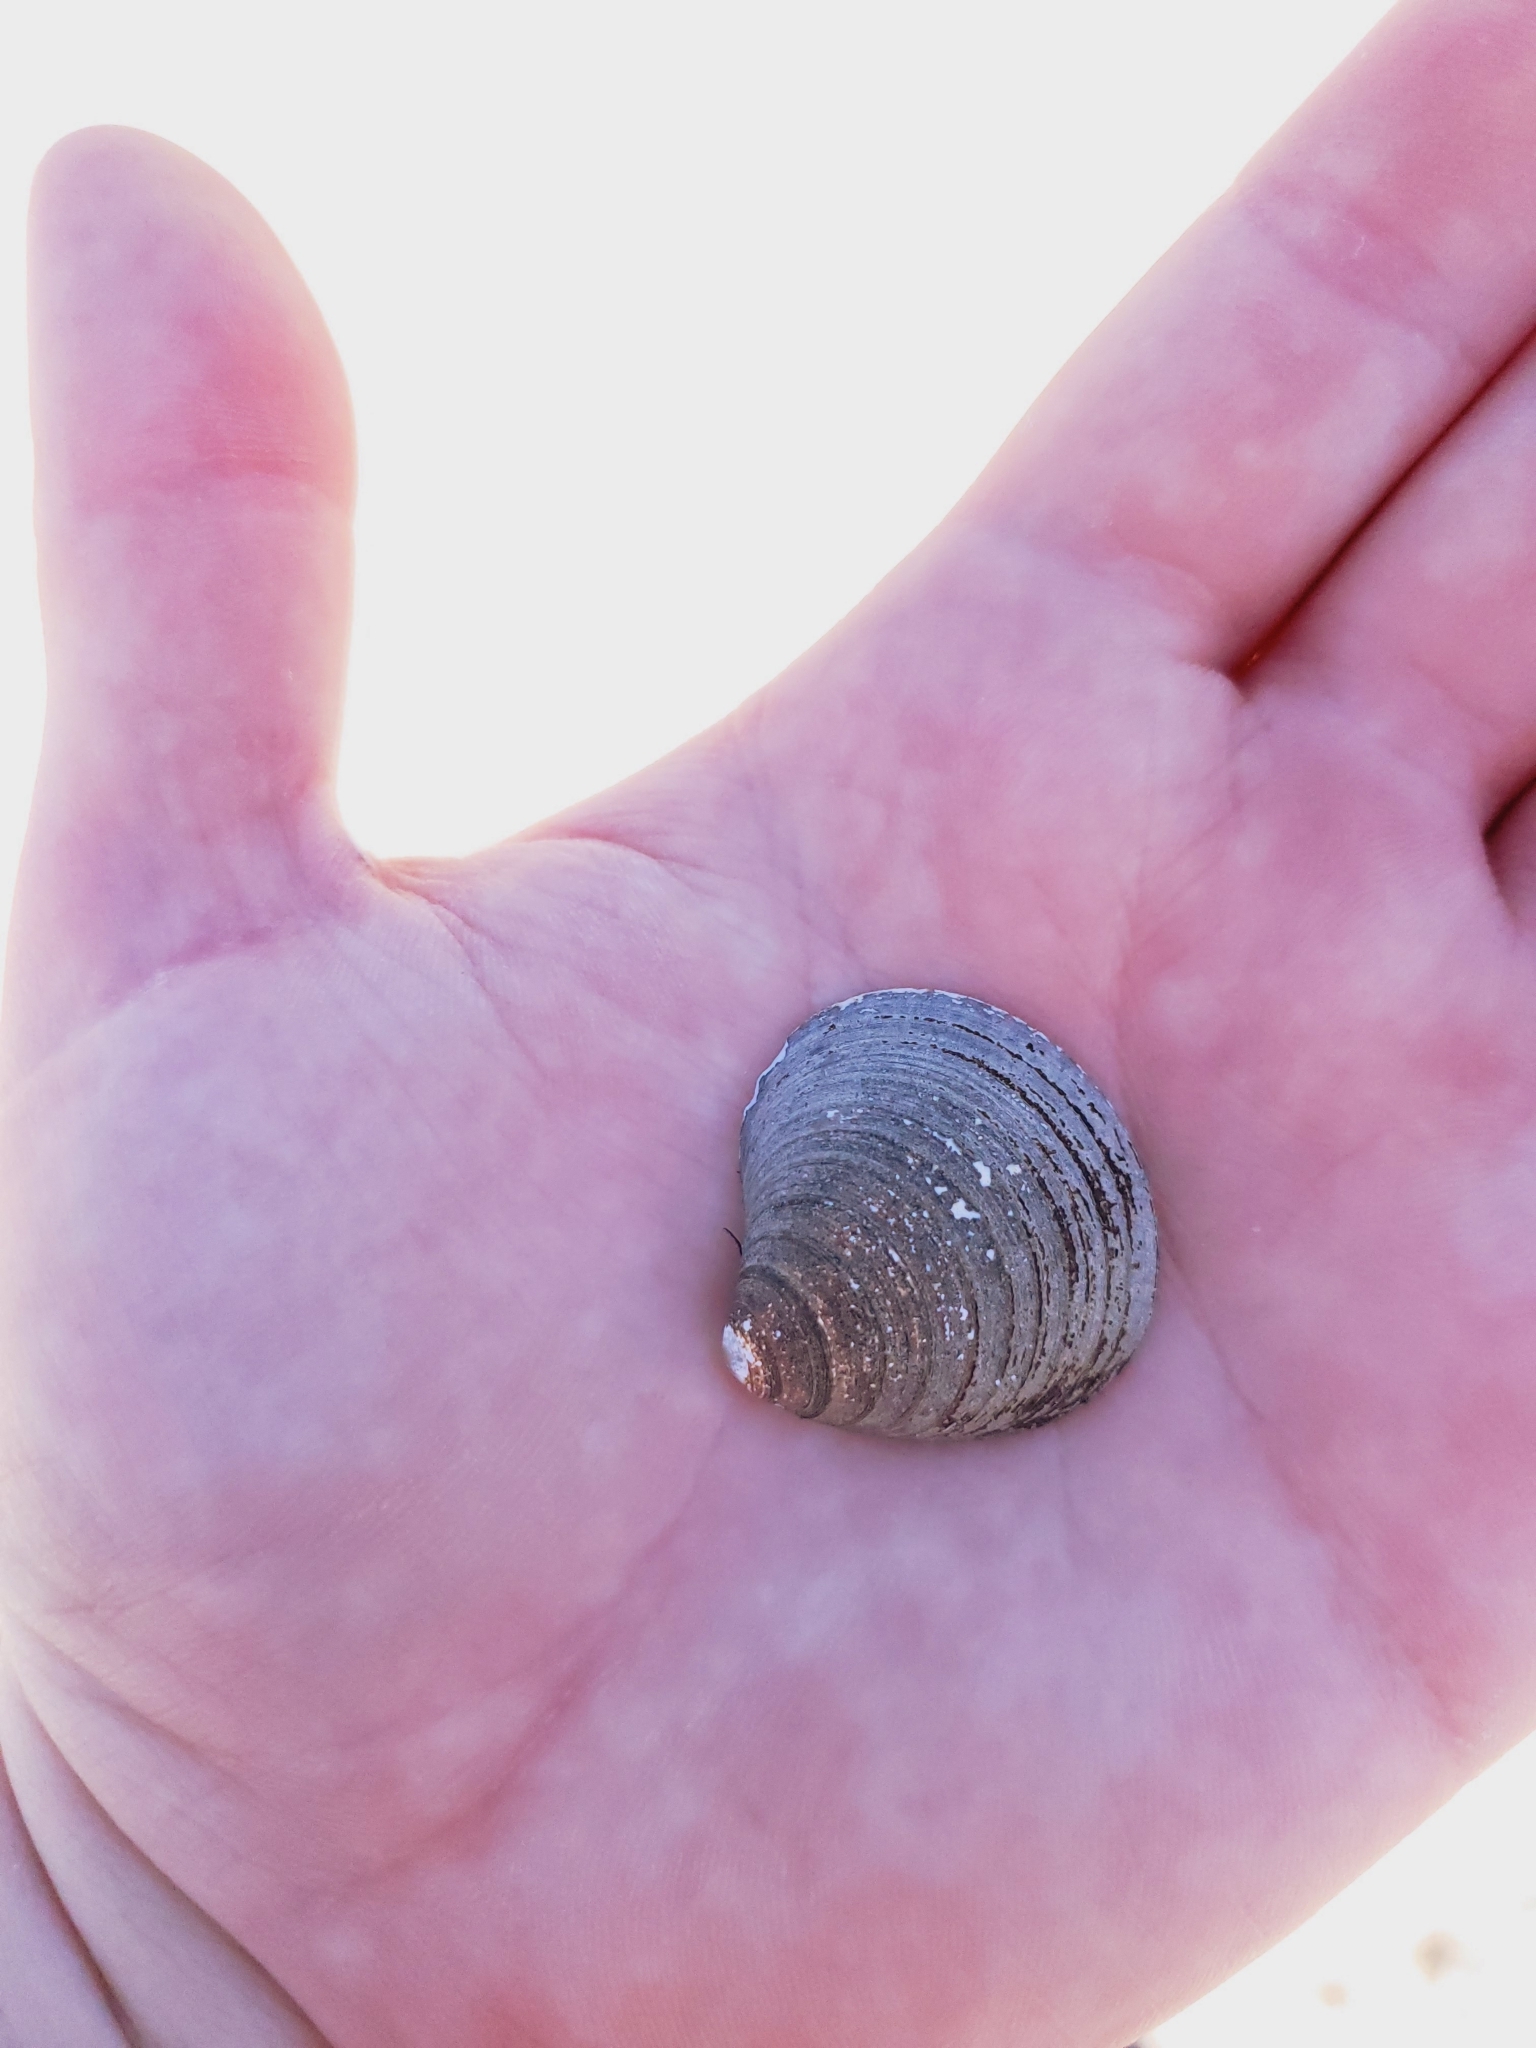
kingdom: Animalia
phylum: Mollusca
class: Bivalvia
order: Cardiida
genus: Isocrassina
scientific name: Isocrassina
